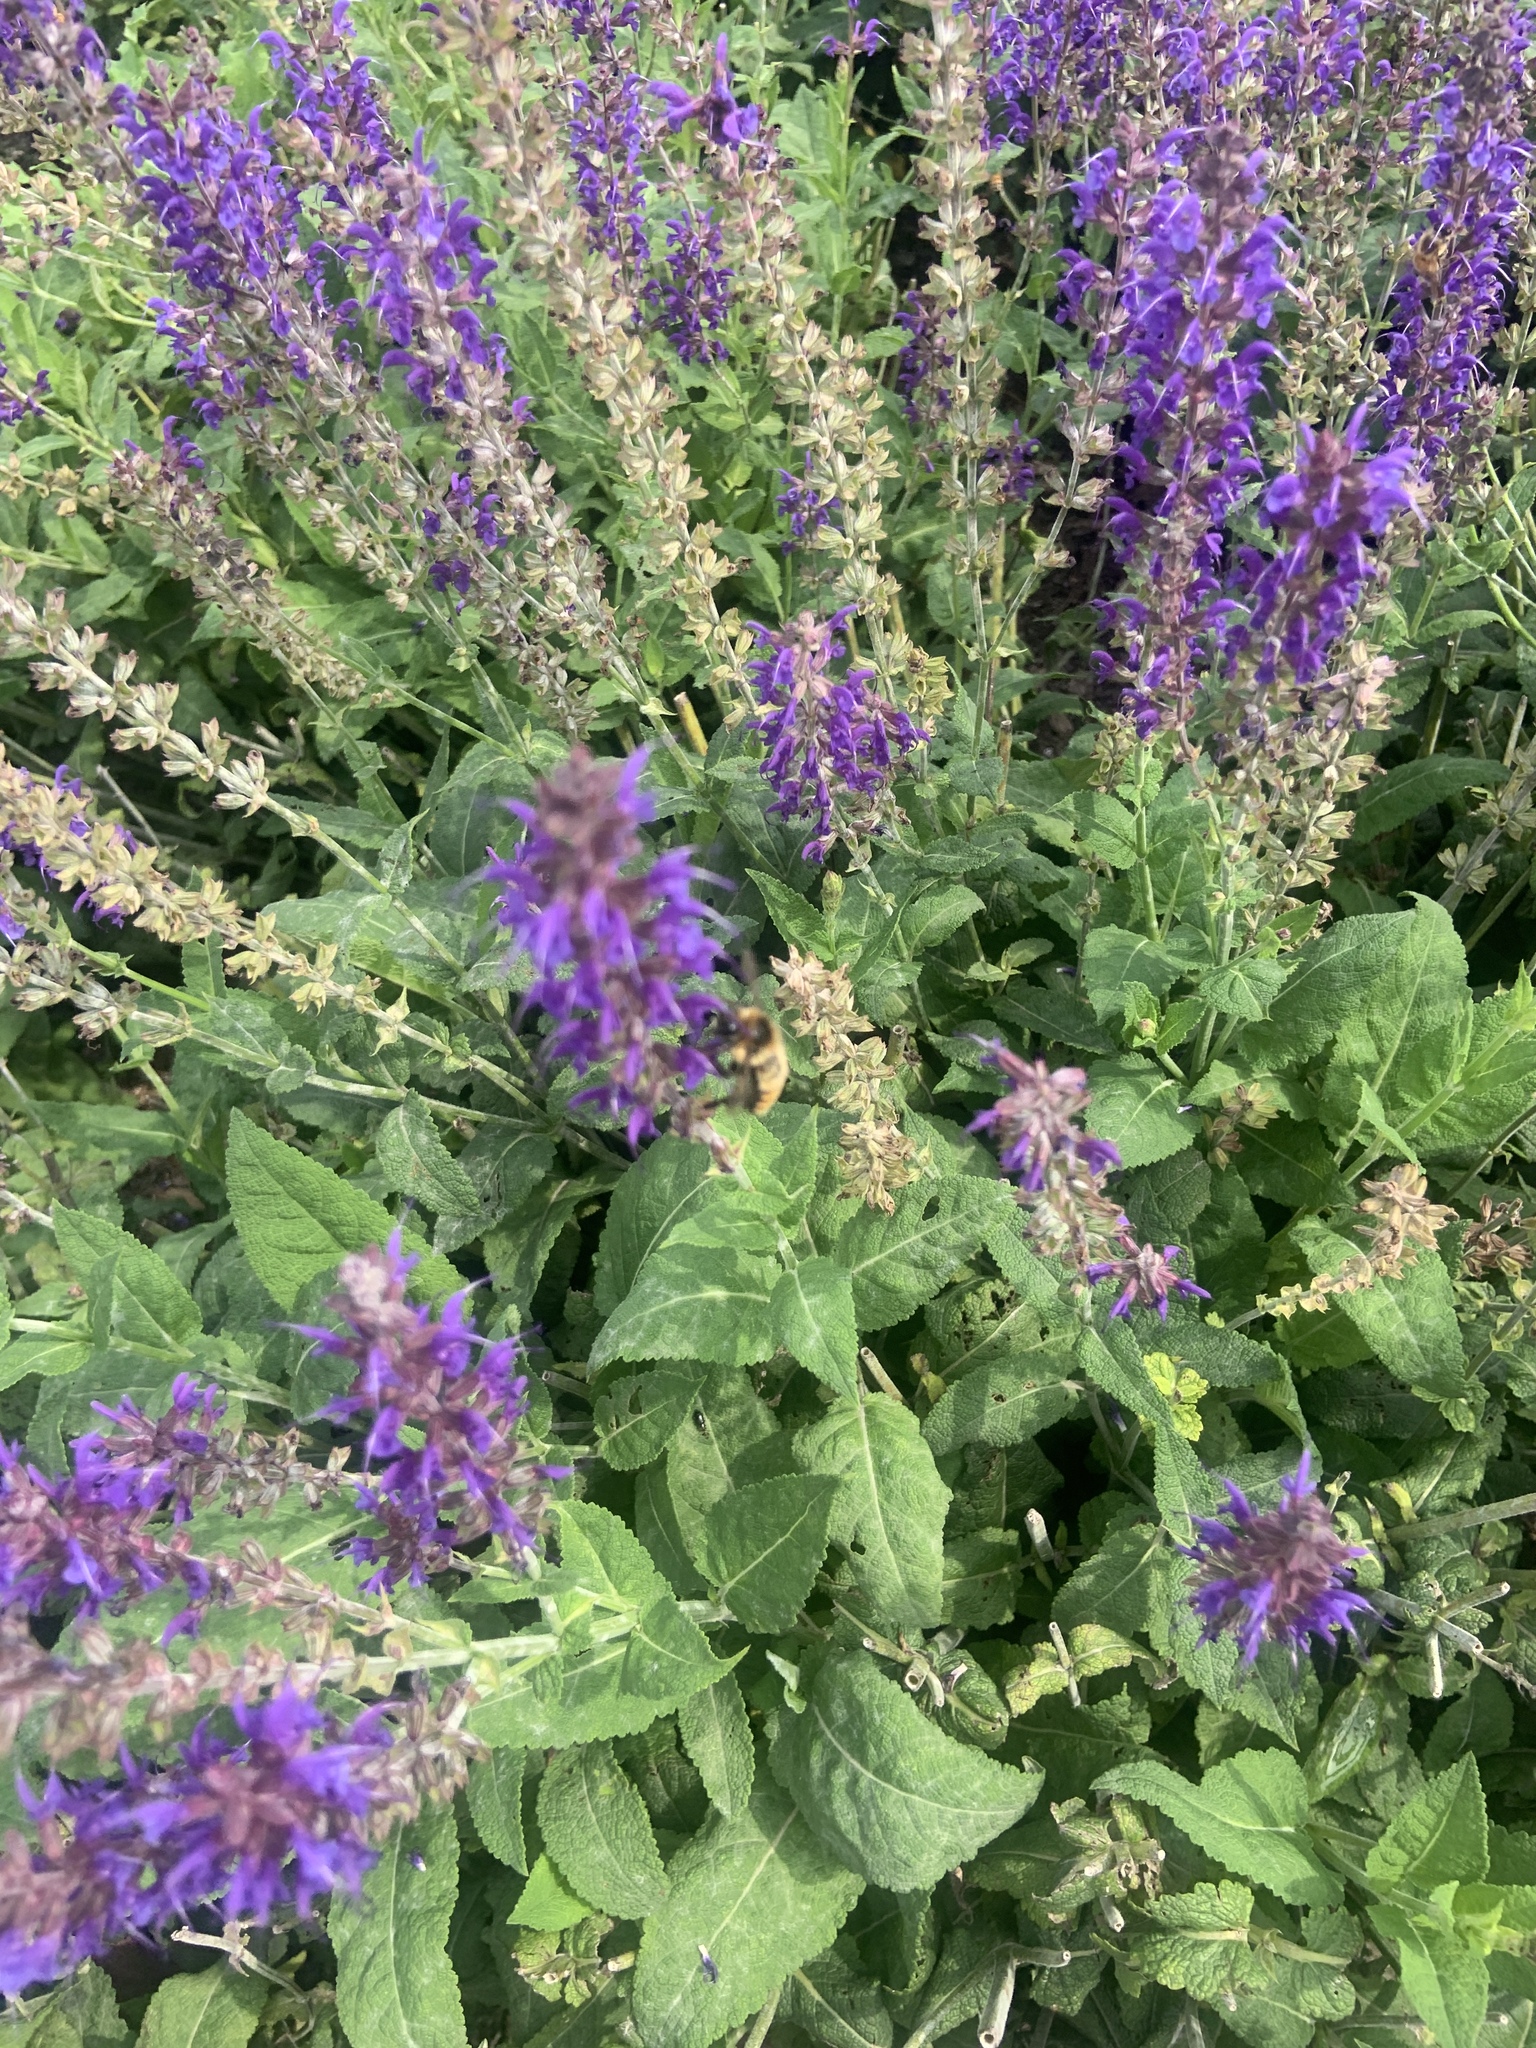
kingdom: Animalia
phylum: Arthropoda
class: Insecta
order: Hymenoptera
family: Apidae
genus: Bombus
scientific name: Bombus rufocinctus
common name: Red-belted bumble bee
